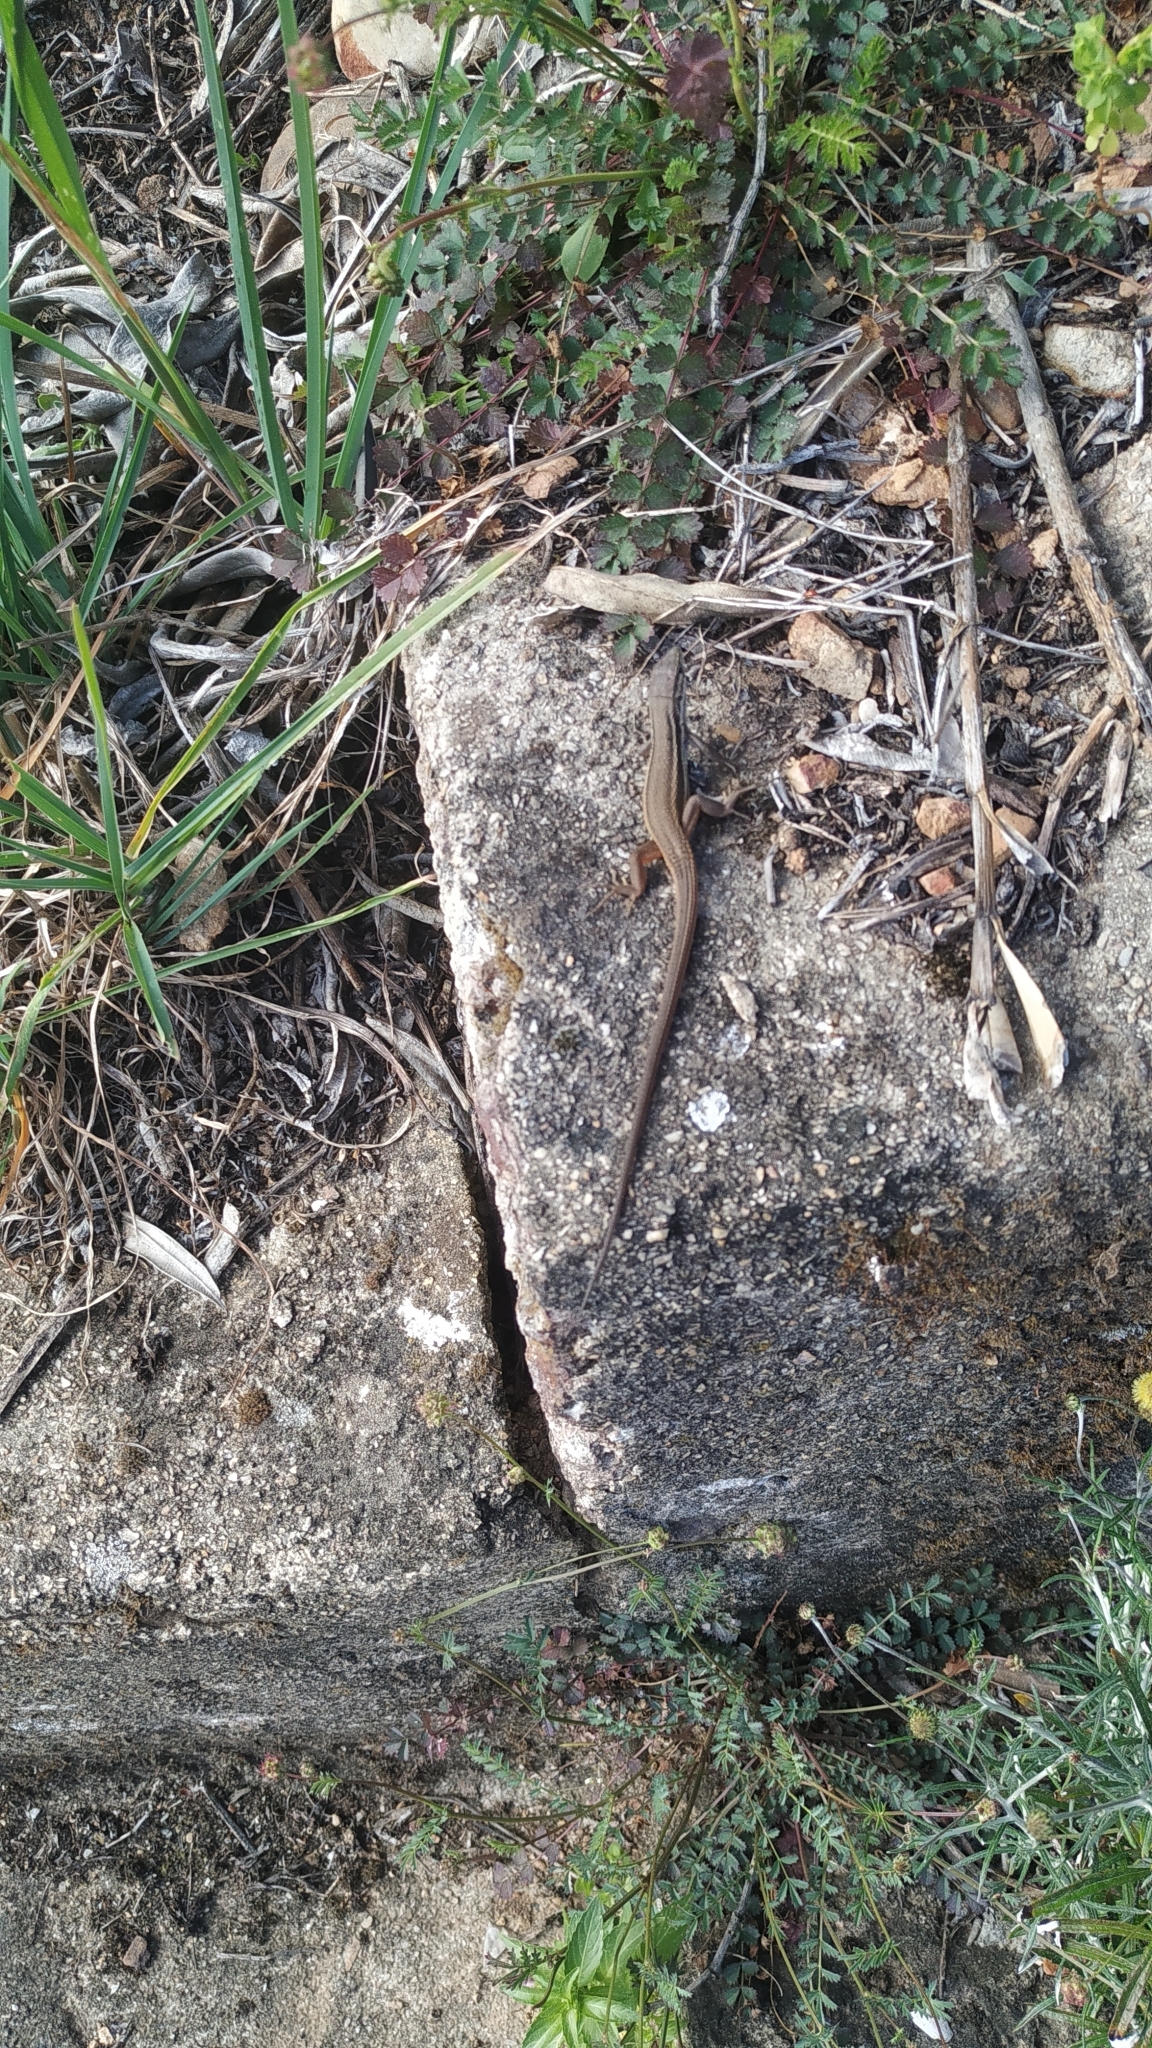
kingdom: Animalia
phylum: Chordata
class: Squamata
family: Lacertidae
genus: Psammodromus
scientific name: Psammodromus algirus
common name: Algerian psammodromus
